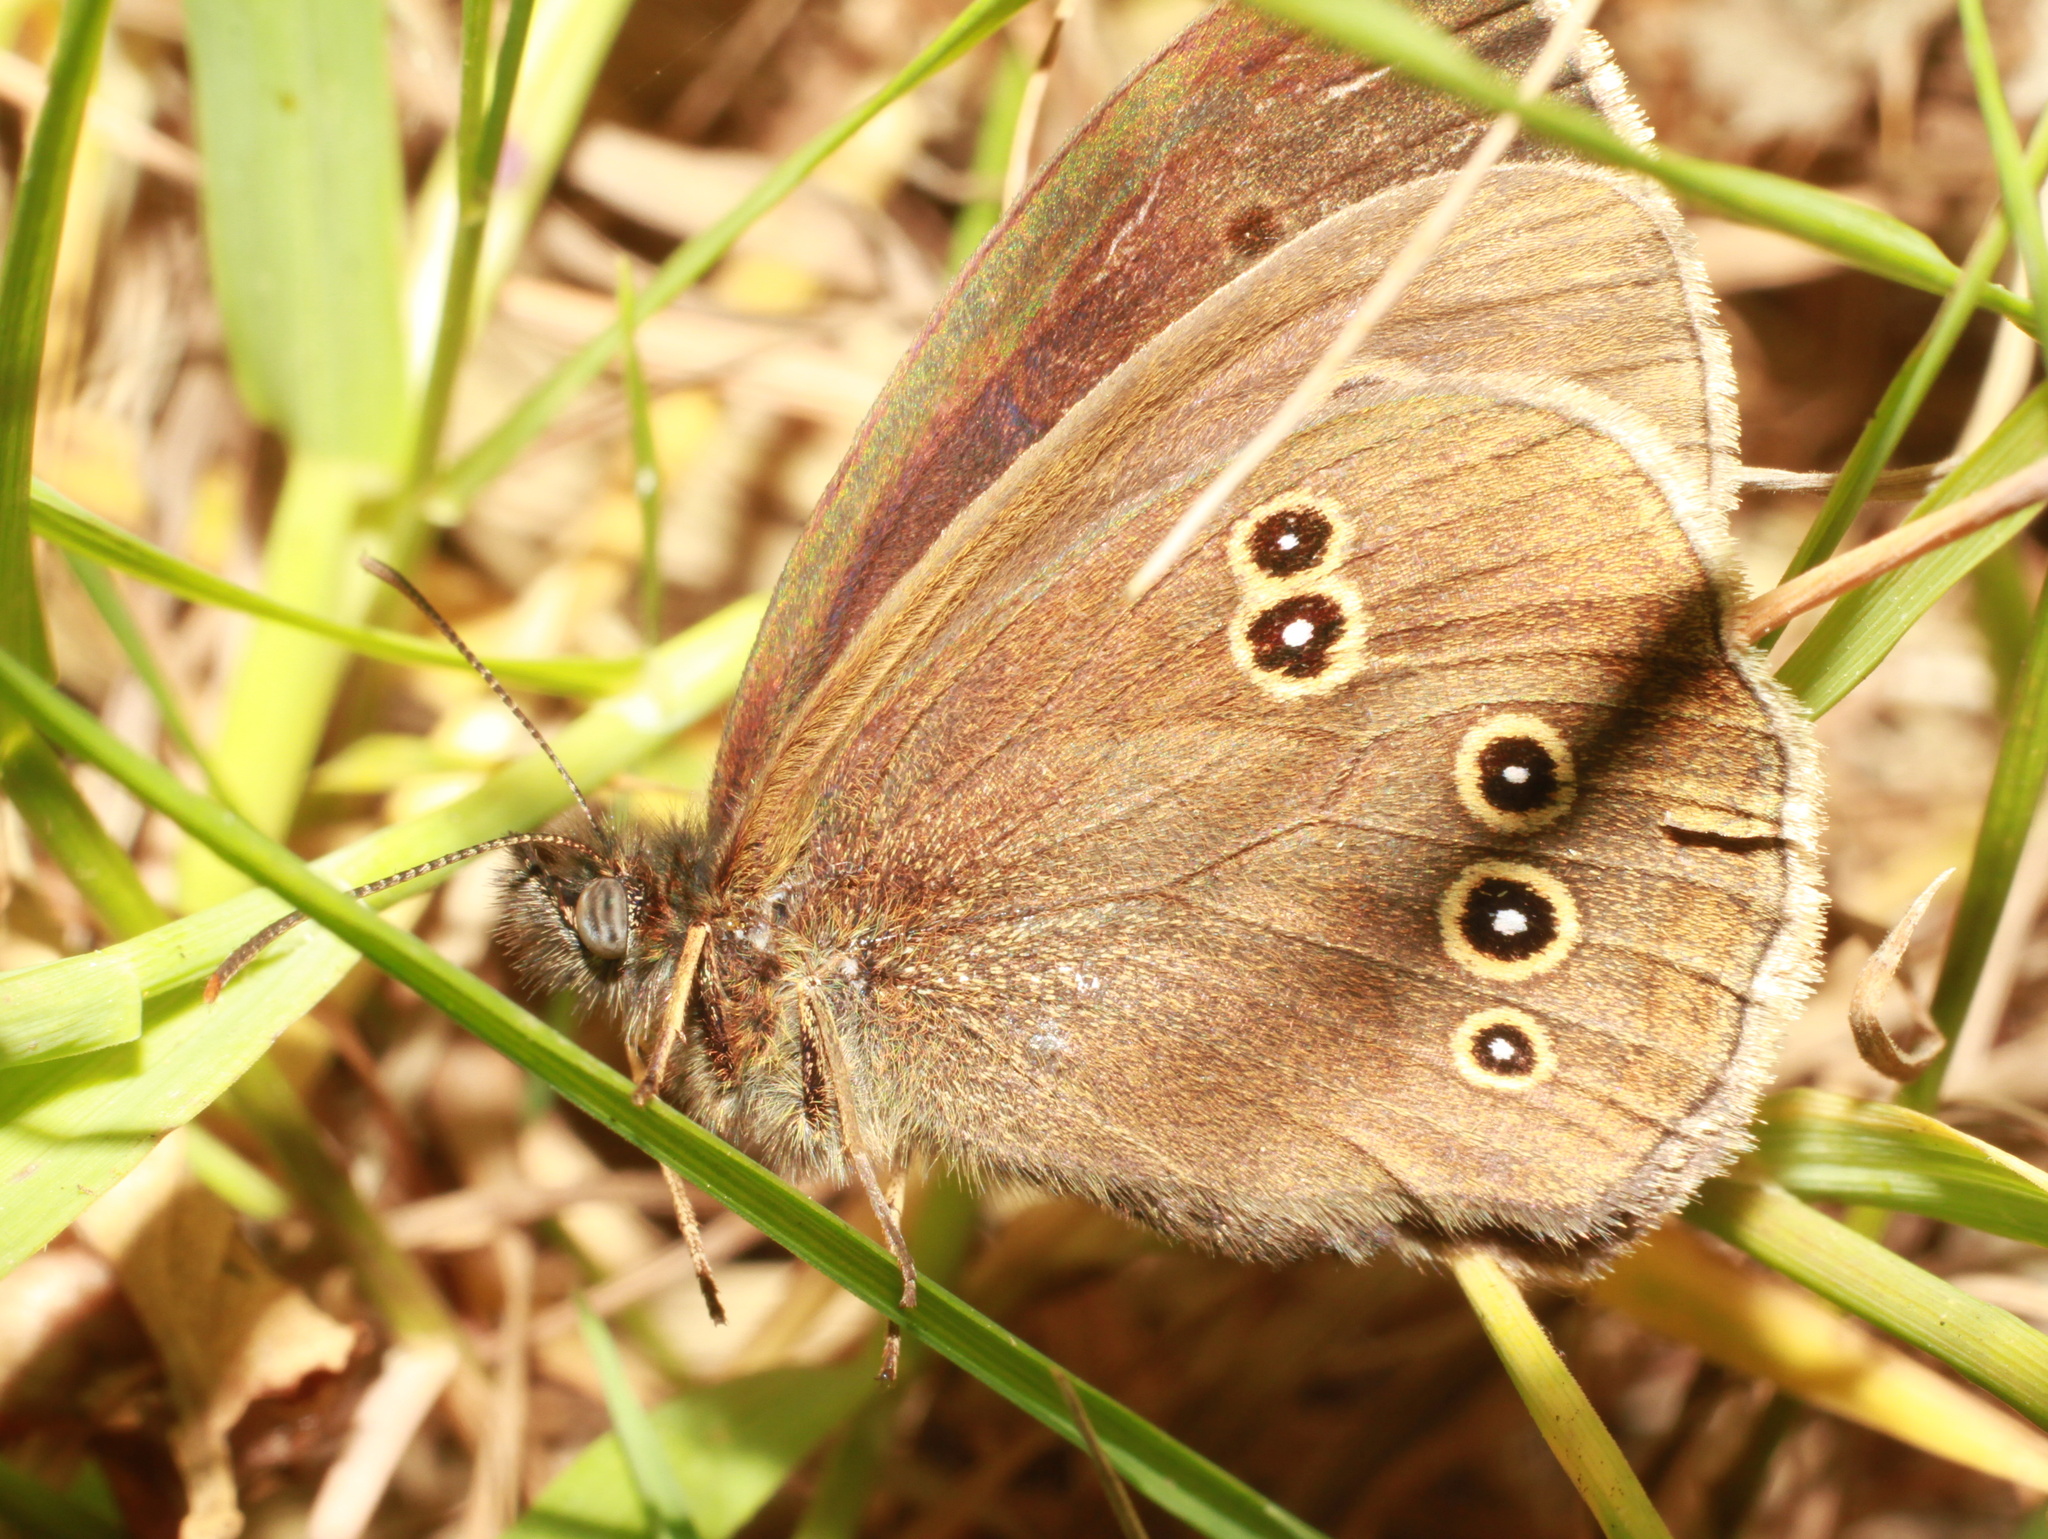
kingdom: Animalia
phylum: Arthropoda
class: Insecta
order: Lepidoptera
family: Nymphalidae
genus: Aphantopus
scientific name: Aphantopus hyperantus
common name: Ringlet
